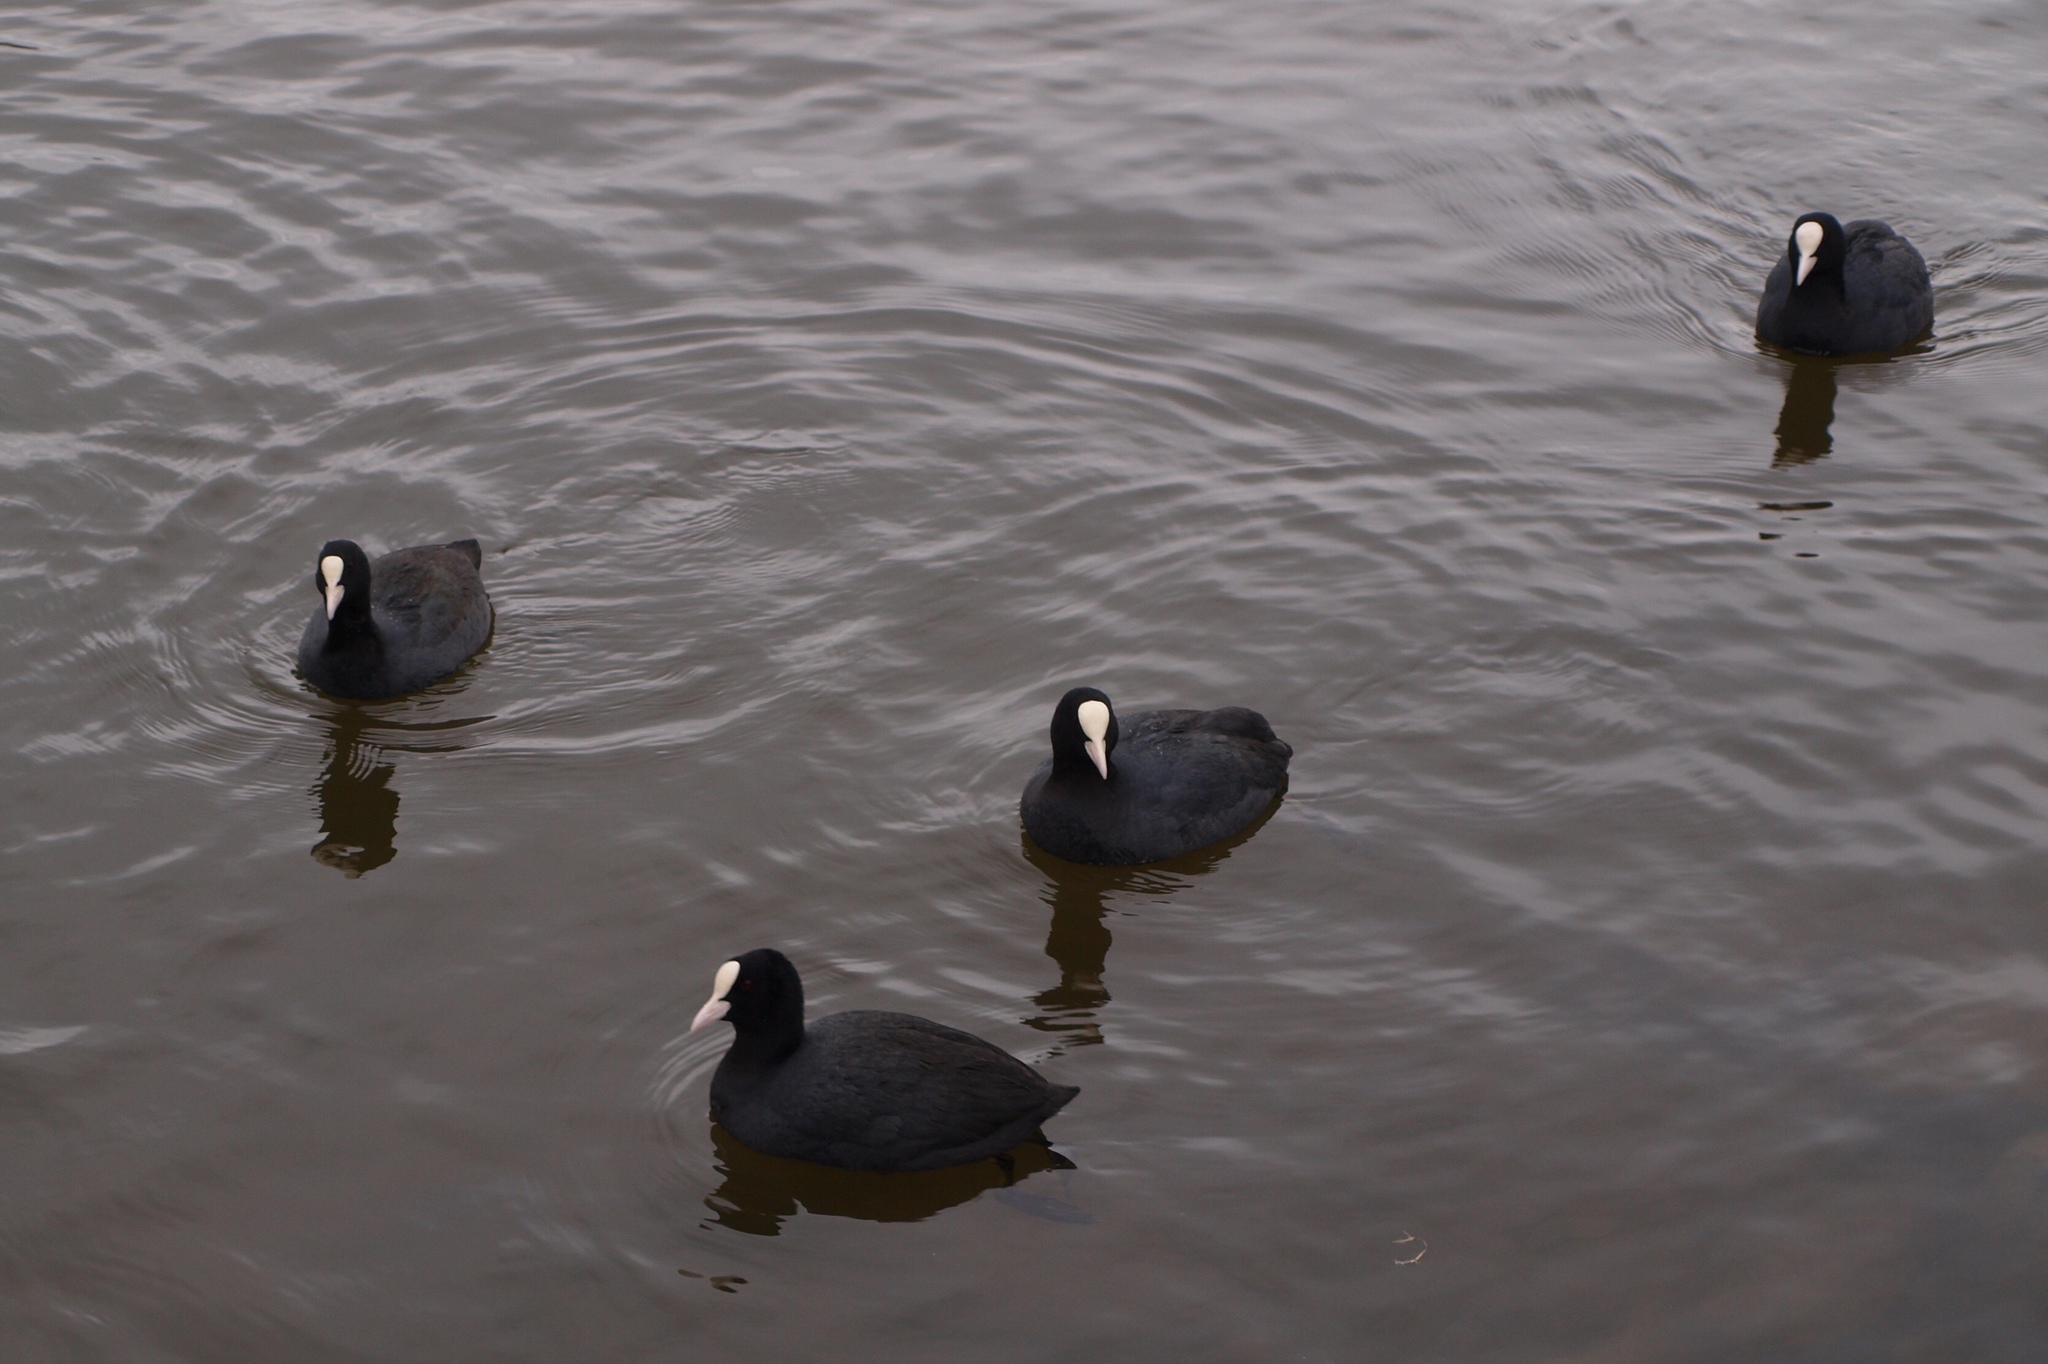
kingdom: Animalia
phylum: Chordata
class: Aves
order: Gruiformes
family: Rallidae
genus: Fulica
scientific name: Fulica atra
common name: Eurasian coot
